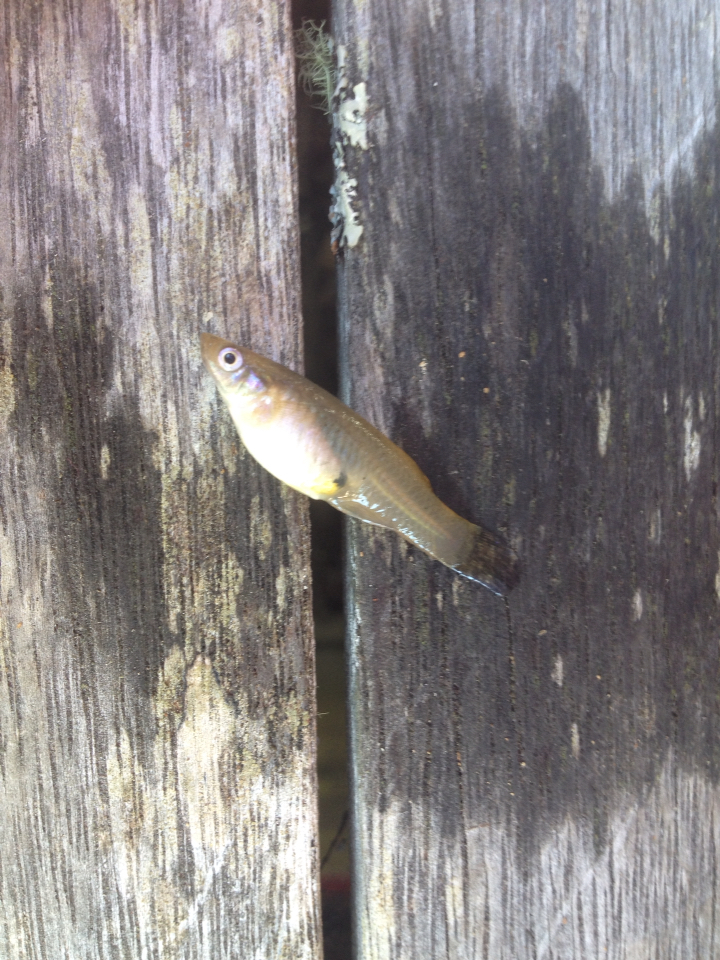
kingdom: Animalia
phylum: Chordata
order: Cyprinodontiformes
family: Poeciliidae
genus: Gambusia
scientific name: Gambusia affinis
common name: Mosquitofish
